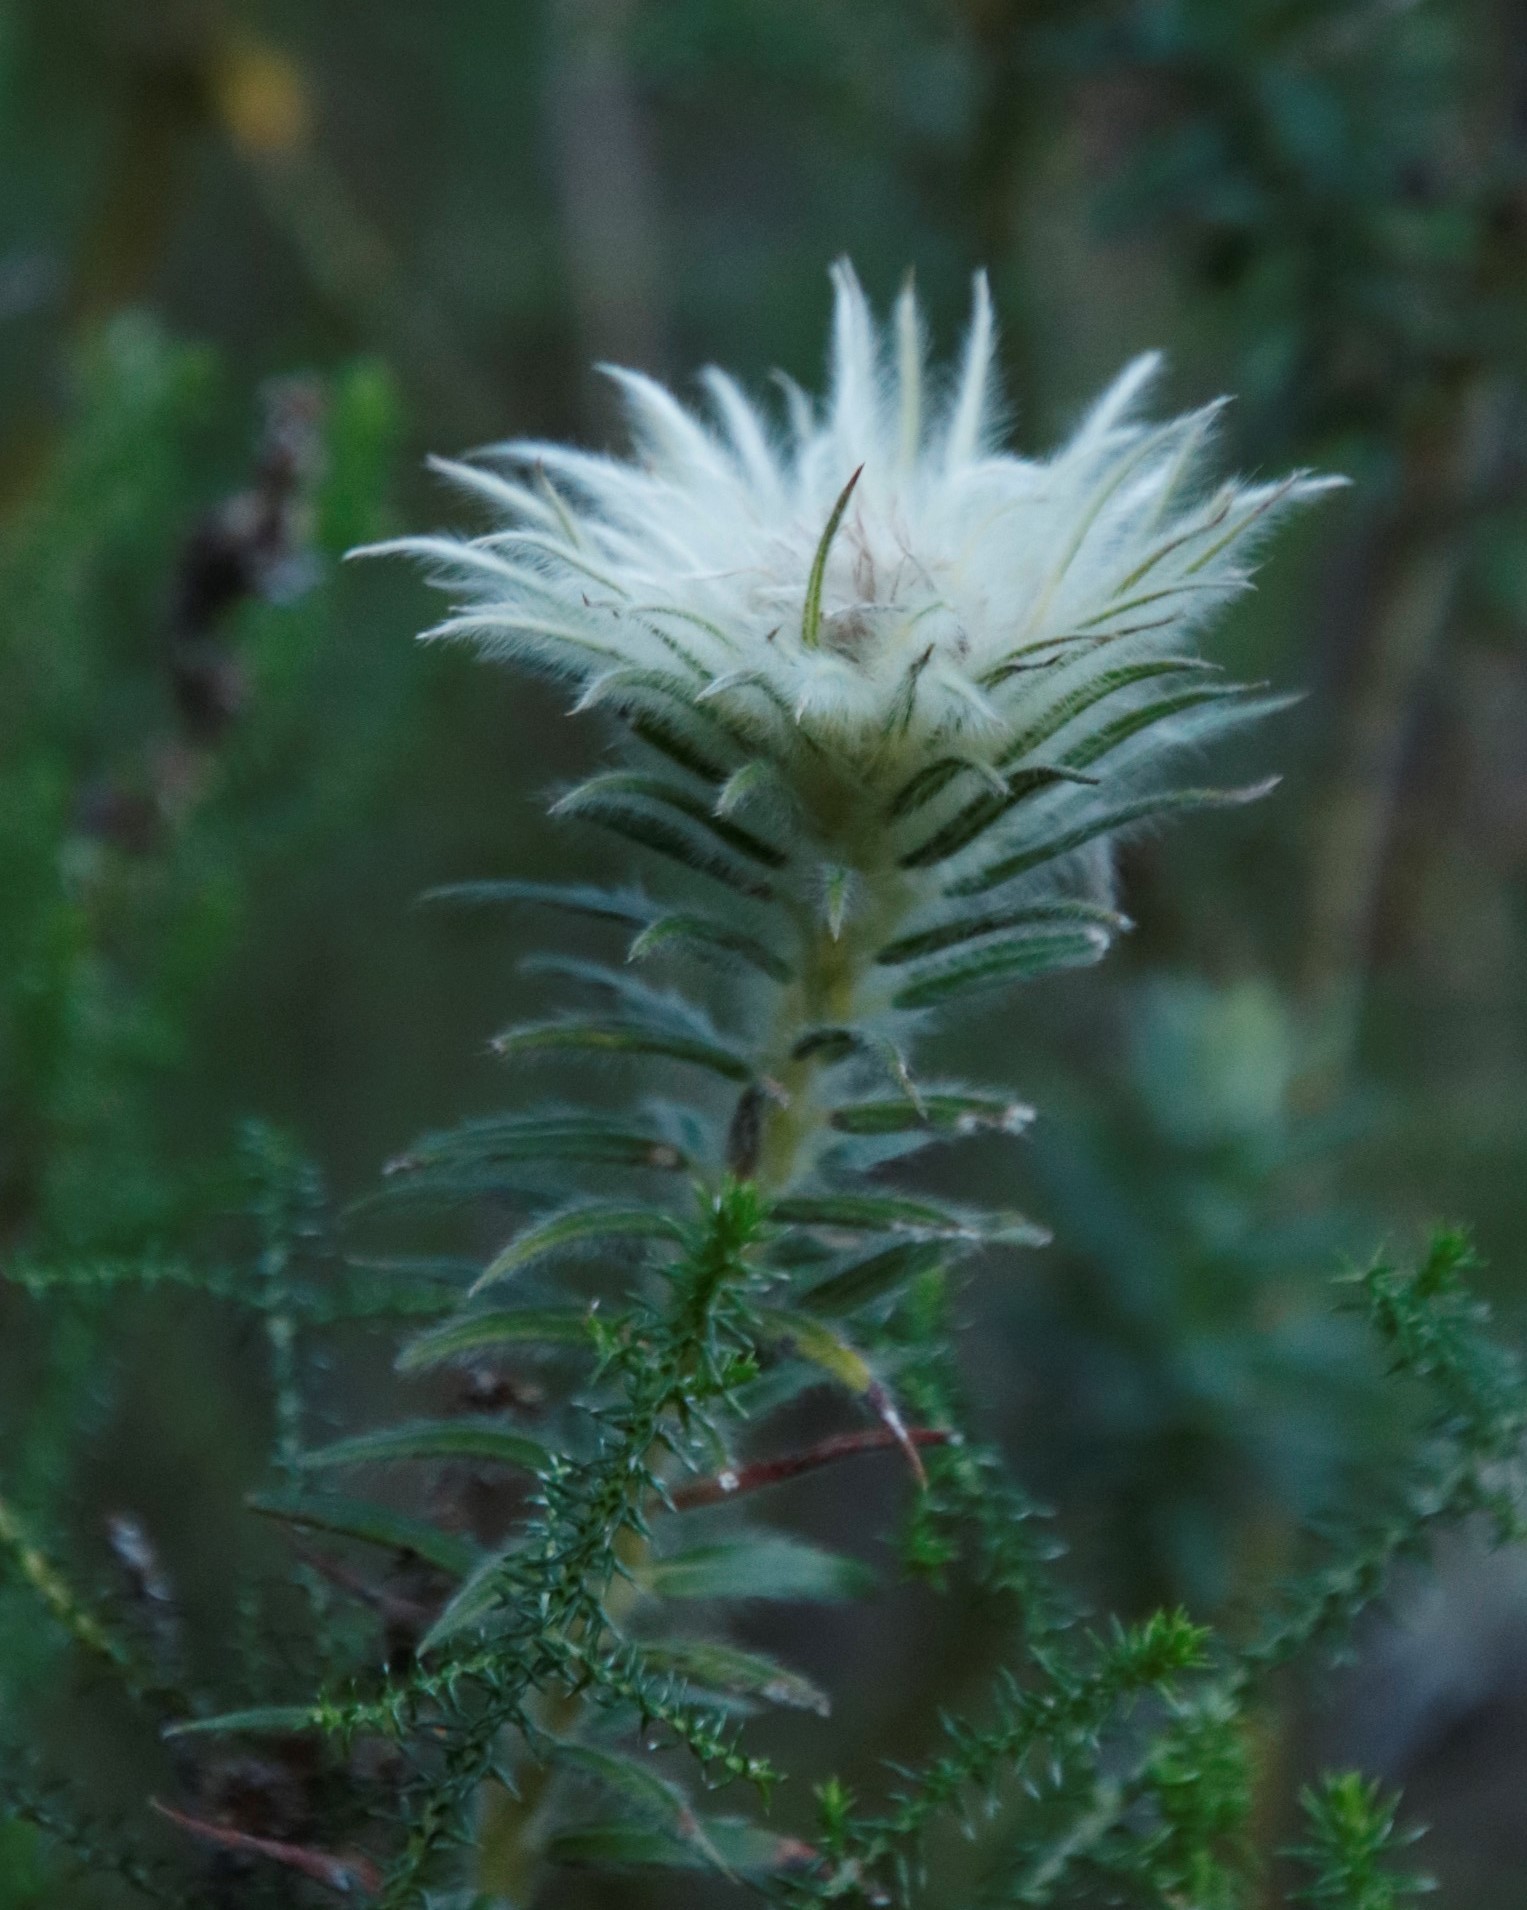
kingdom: Plantae
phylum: Tracheophyta
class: Magnoliopsida
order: Rosales
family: Rhamnaceae
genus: Phylica
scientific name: Phylica pubescens
